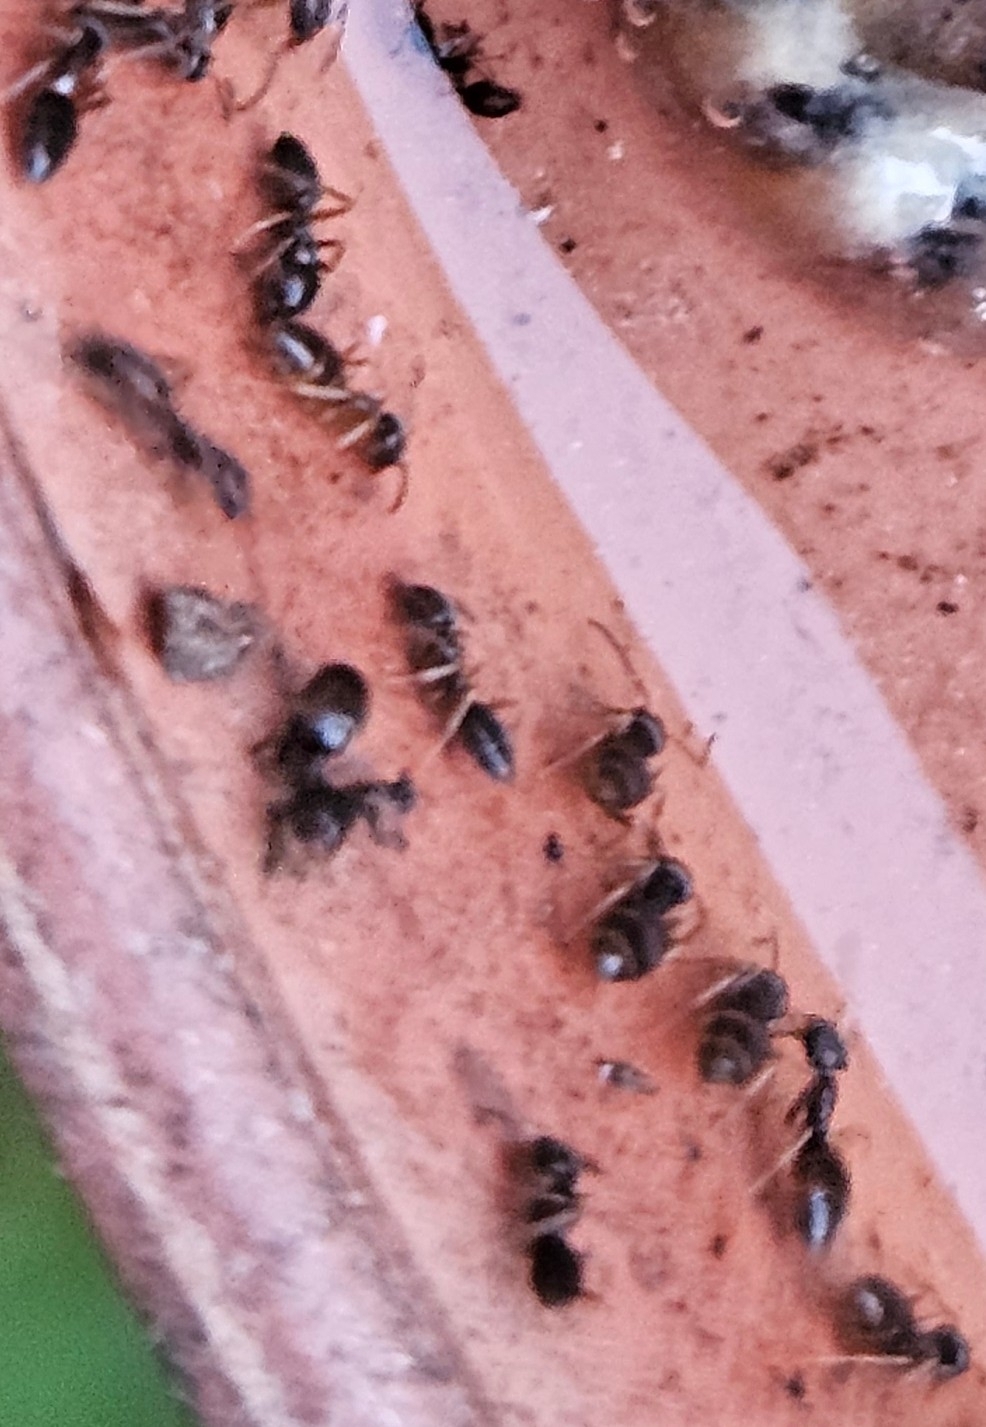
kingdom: Animalia
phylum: Arthropoda
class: Insecta
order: Hymenoptera
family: Formicidae
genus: Tapinoma
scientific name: Tapinoma sessile
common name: Odorous house ant
